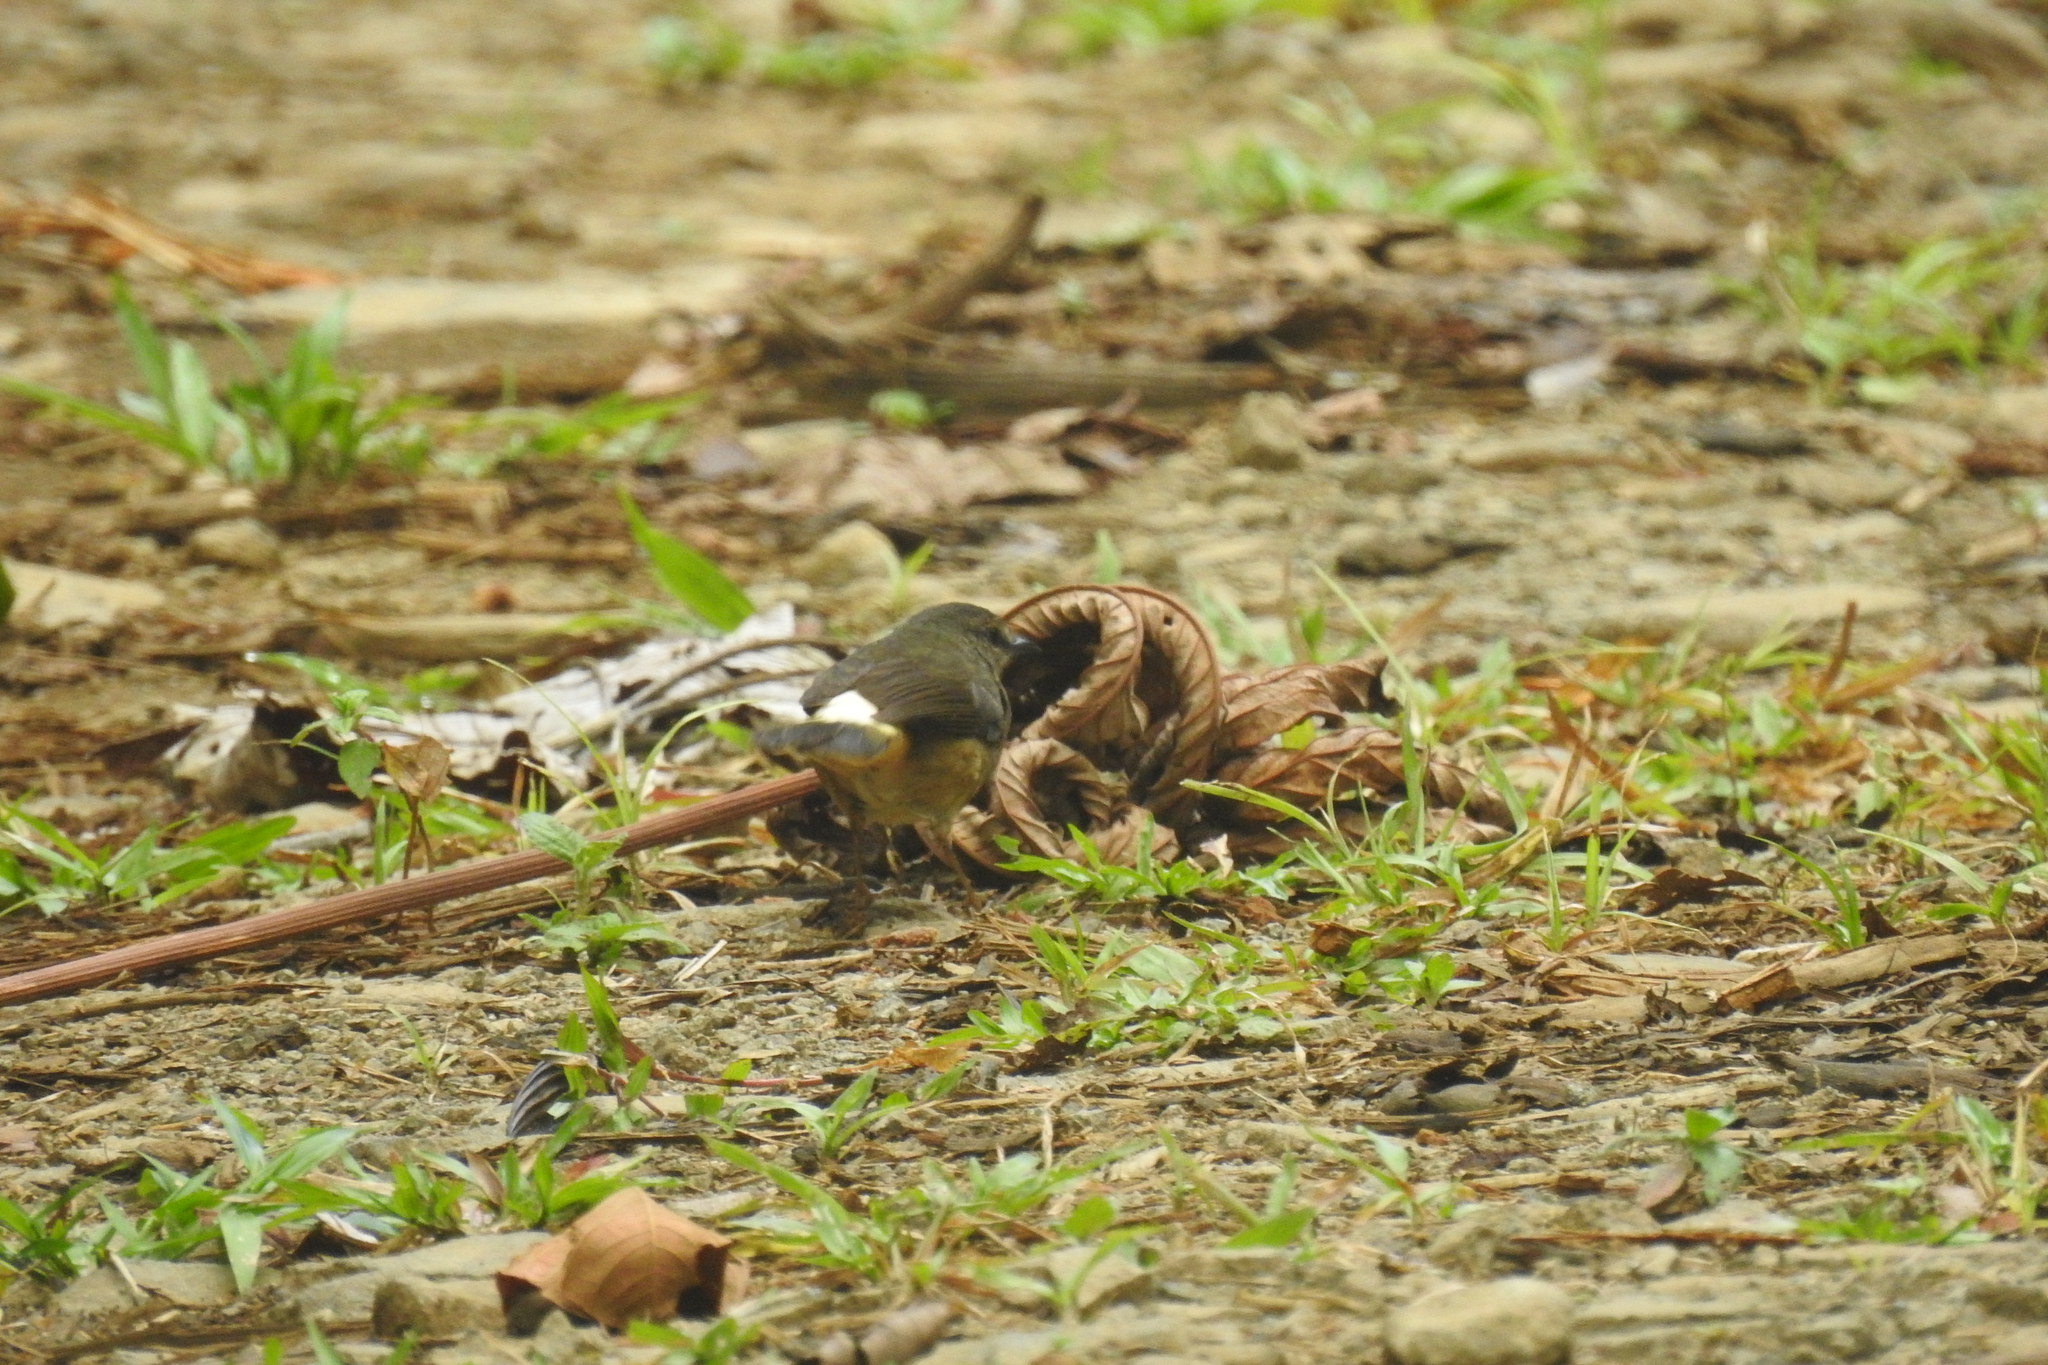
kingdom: Animalia
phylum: Chordata
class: Aves
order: Passeriformes
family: Parulidae
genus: Myiothlypis
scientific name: Myiothlypis fulvicauda
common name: Buff-rumped warbler
